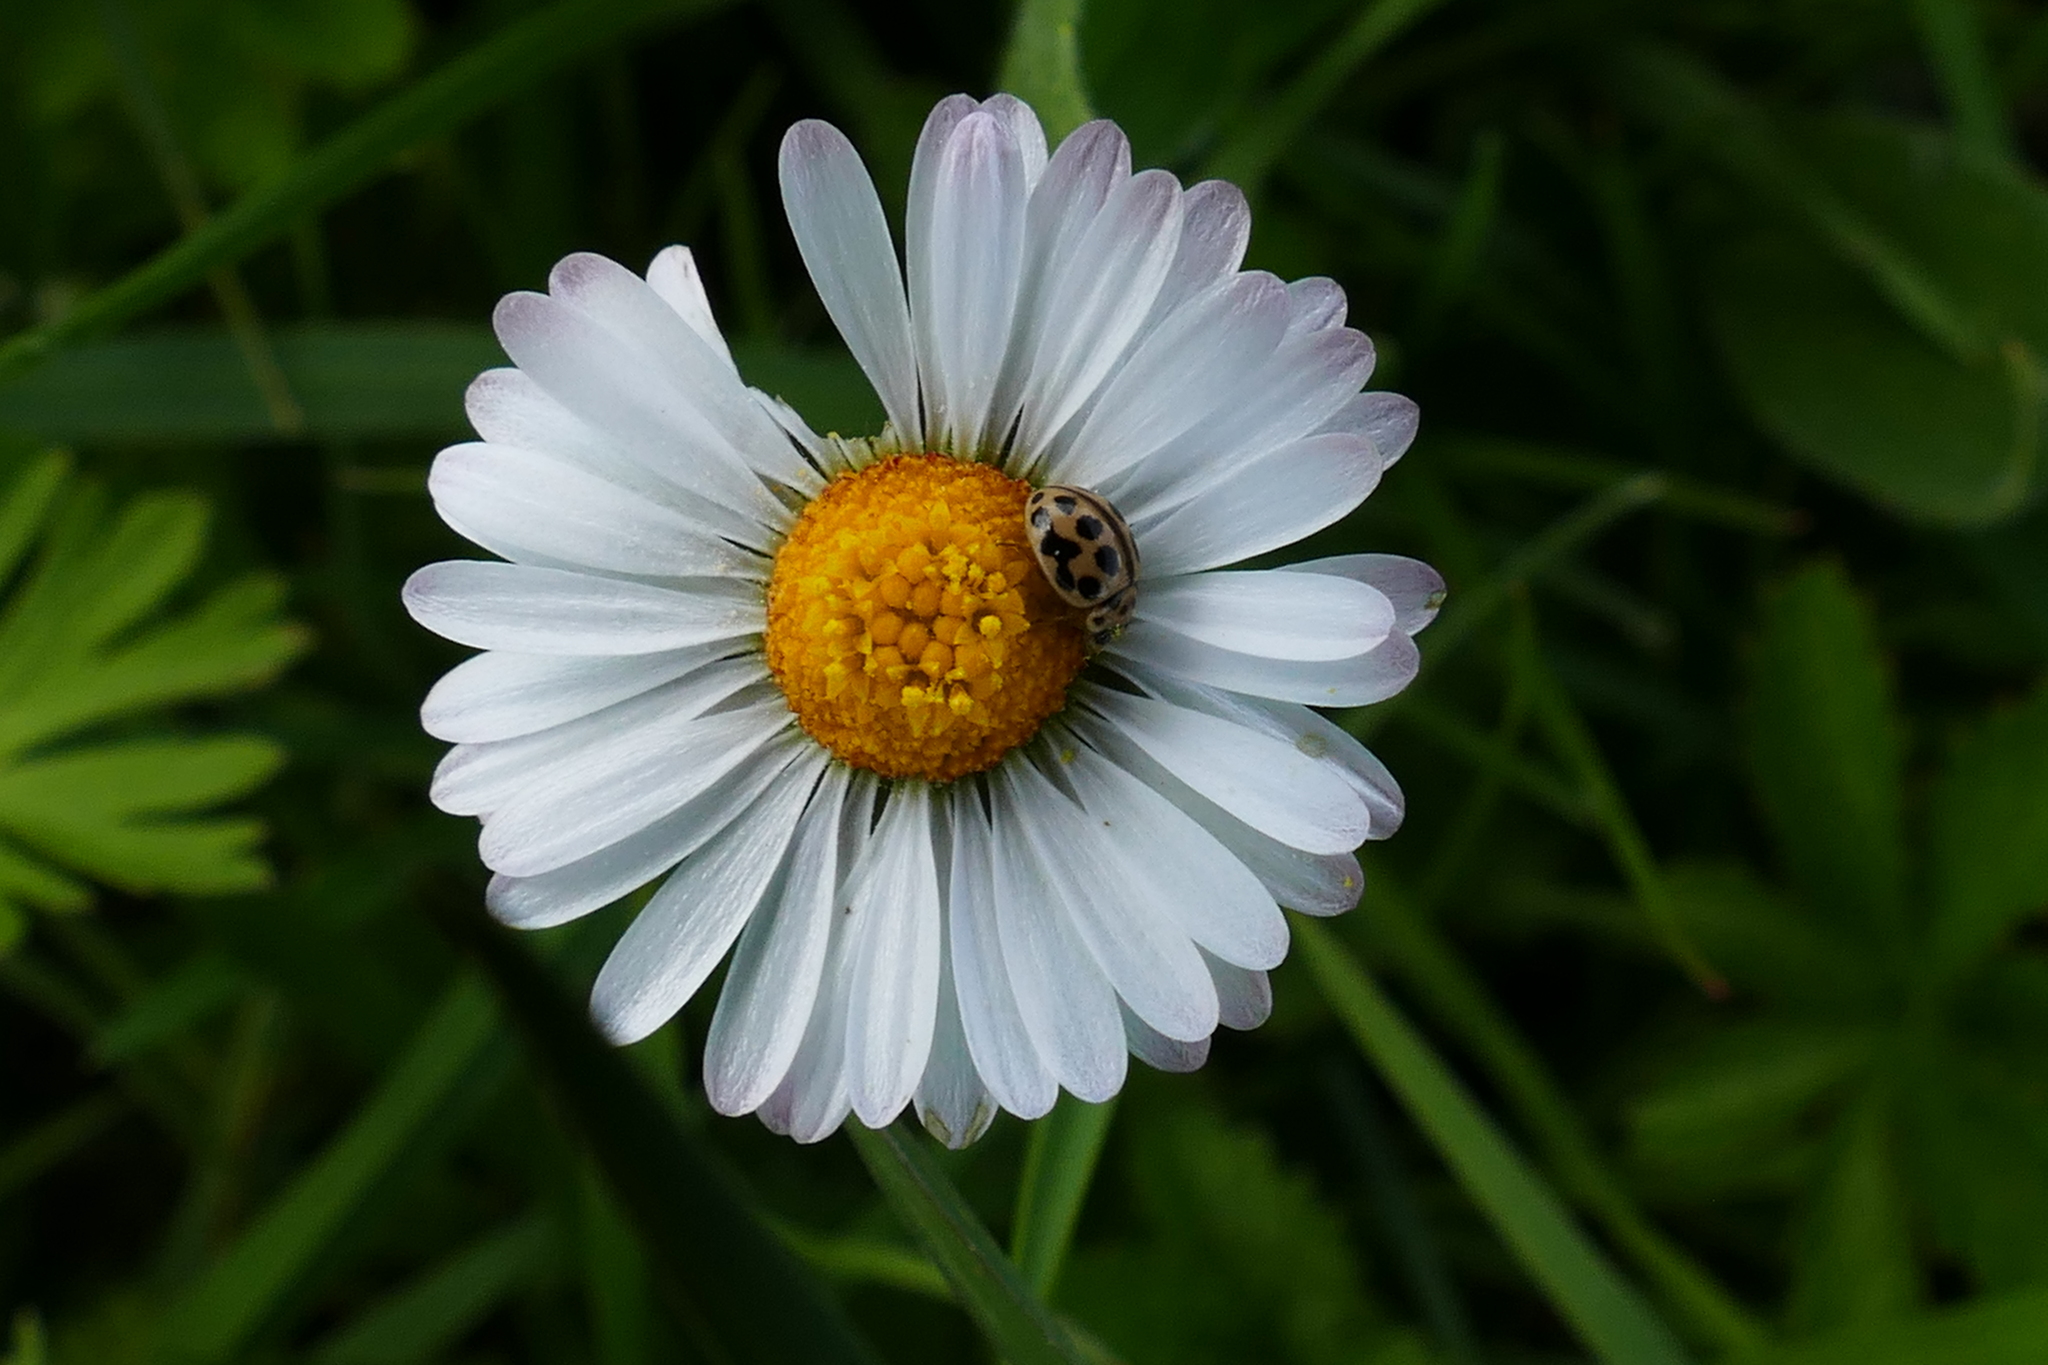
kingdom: Animalia
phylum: Arthropoda
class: Insecta
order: Coleoptera
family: Coccinellidae
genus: Tytthaspis
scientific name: Tytthaspis sedecimpunctata
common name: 16-spot ladybird
